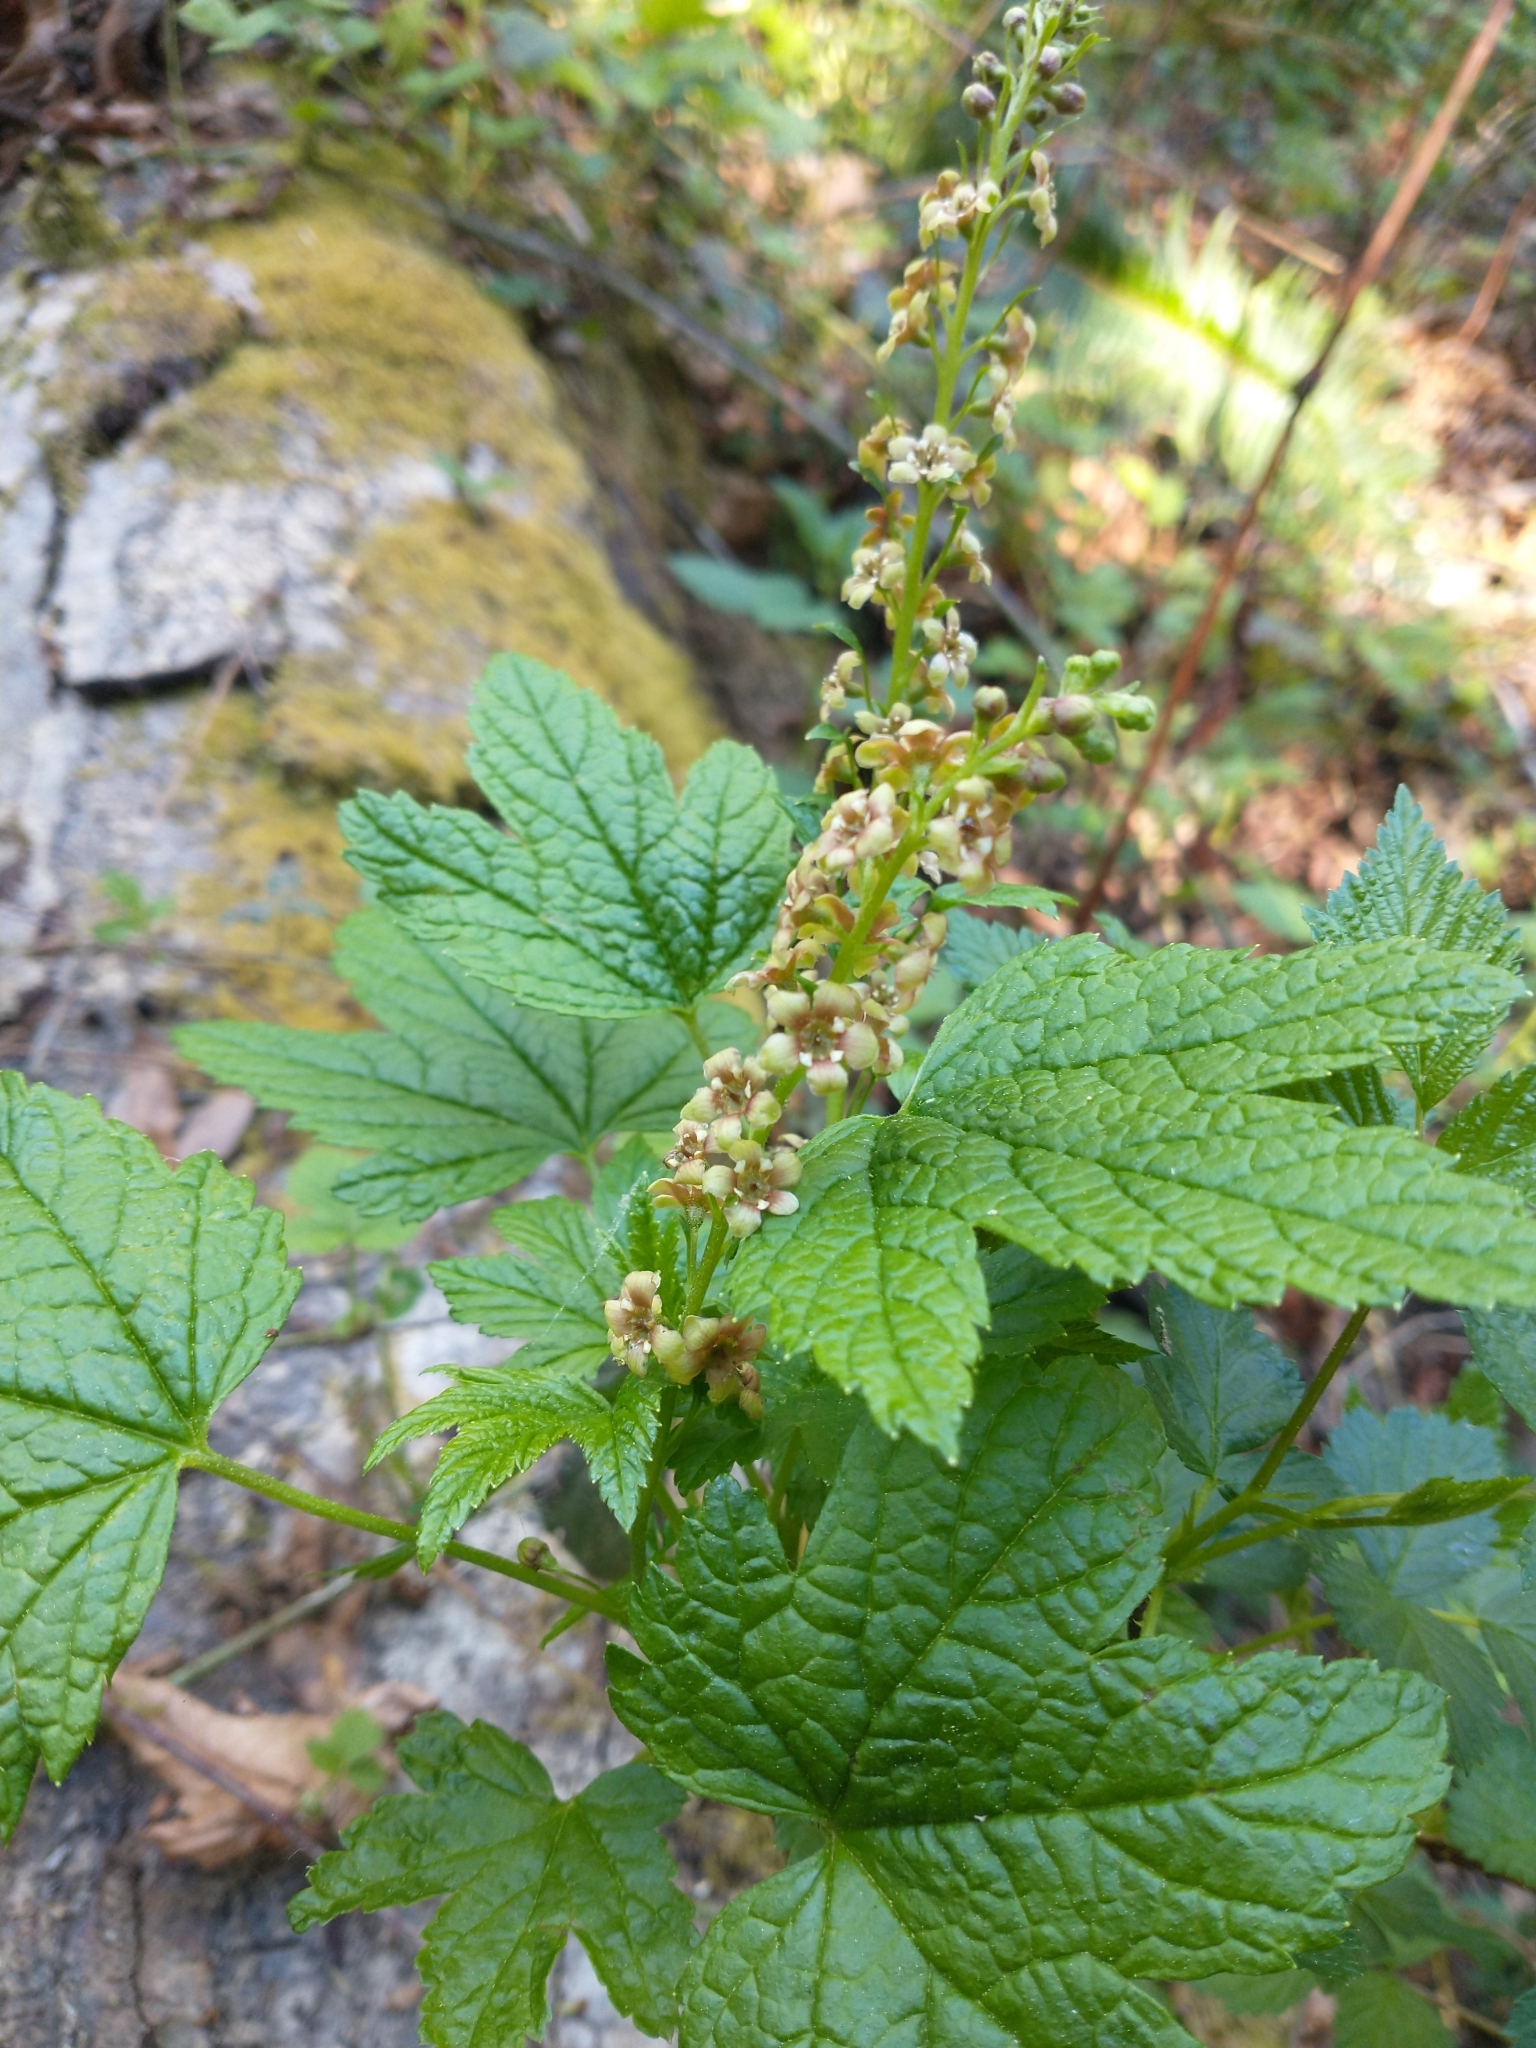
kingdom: Plantae
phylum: Tracheophyta
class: Magnoliopsida
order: Saxifragales
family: Grossulariaceae
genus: Ribes
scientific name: Ribes bracteosum
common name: California black currant
